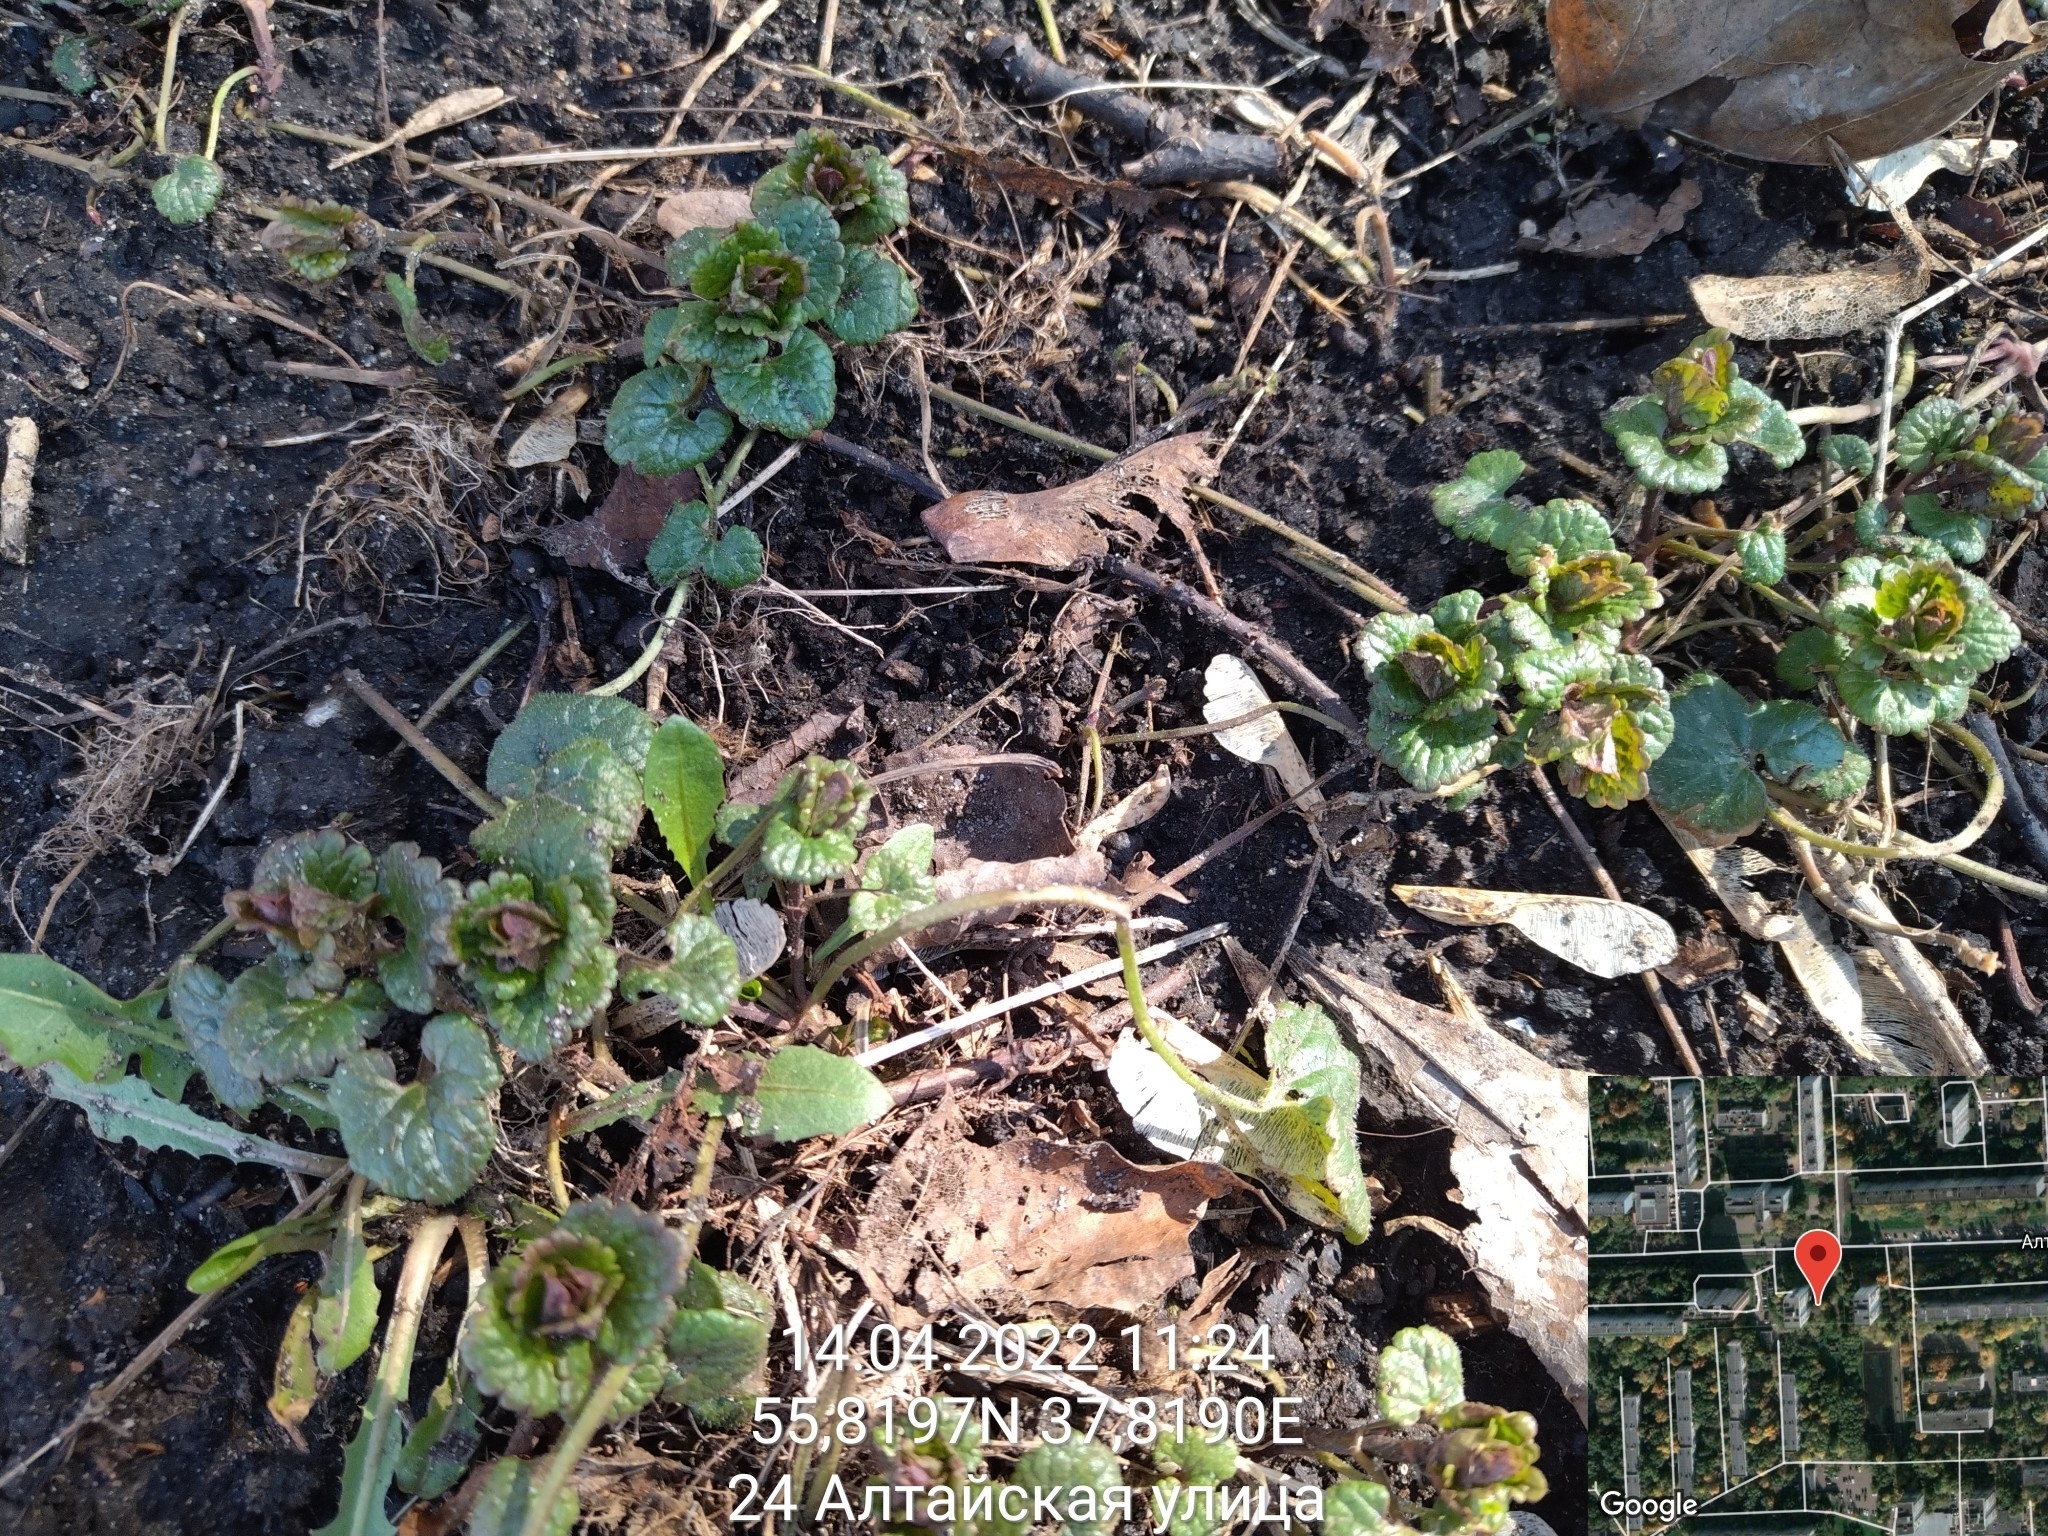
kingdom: Plantae
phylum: Tracheophyta
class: Magnoliopsida
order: Lamiales
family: Lamiaceae
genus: Glechoma
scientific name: Glechoma hederacea
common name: Ground ivy
